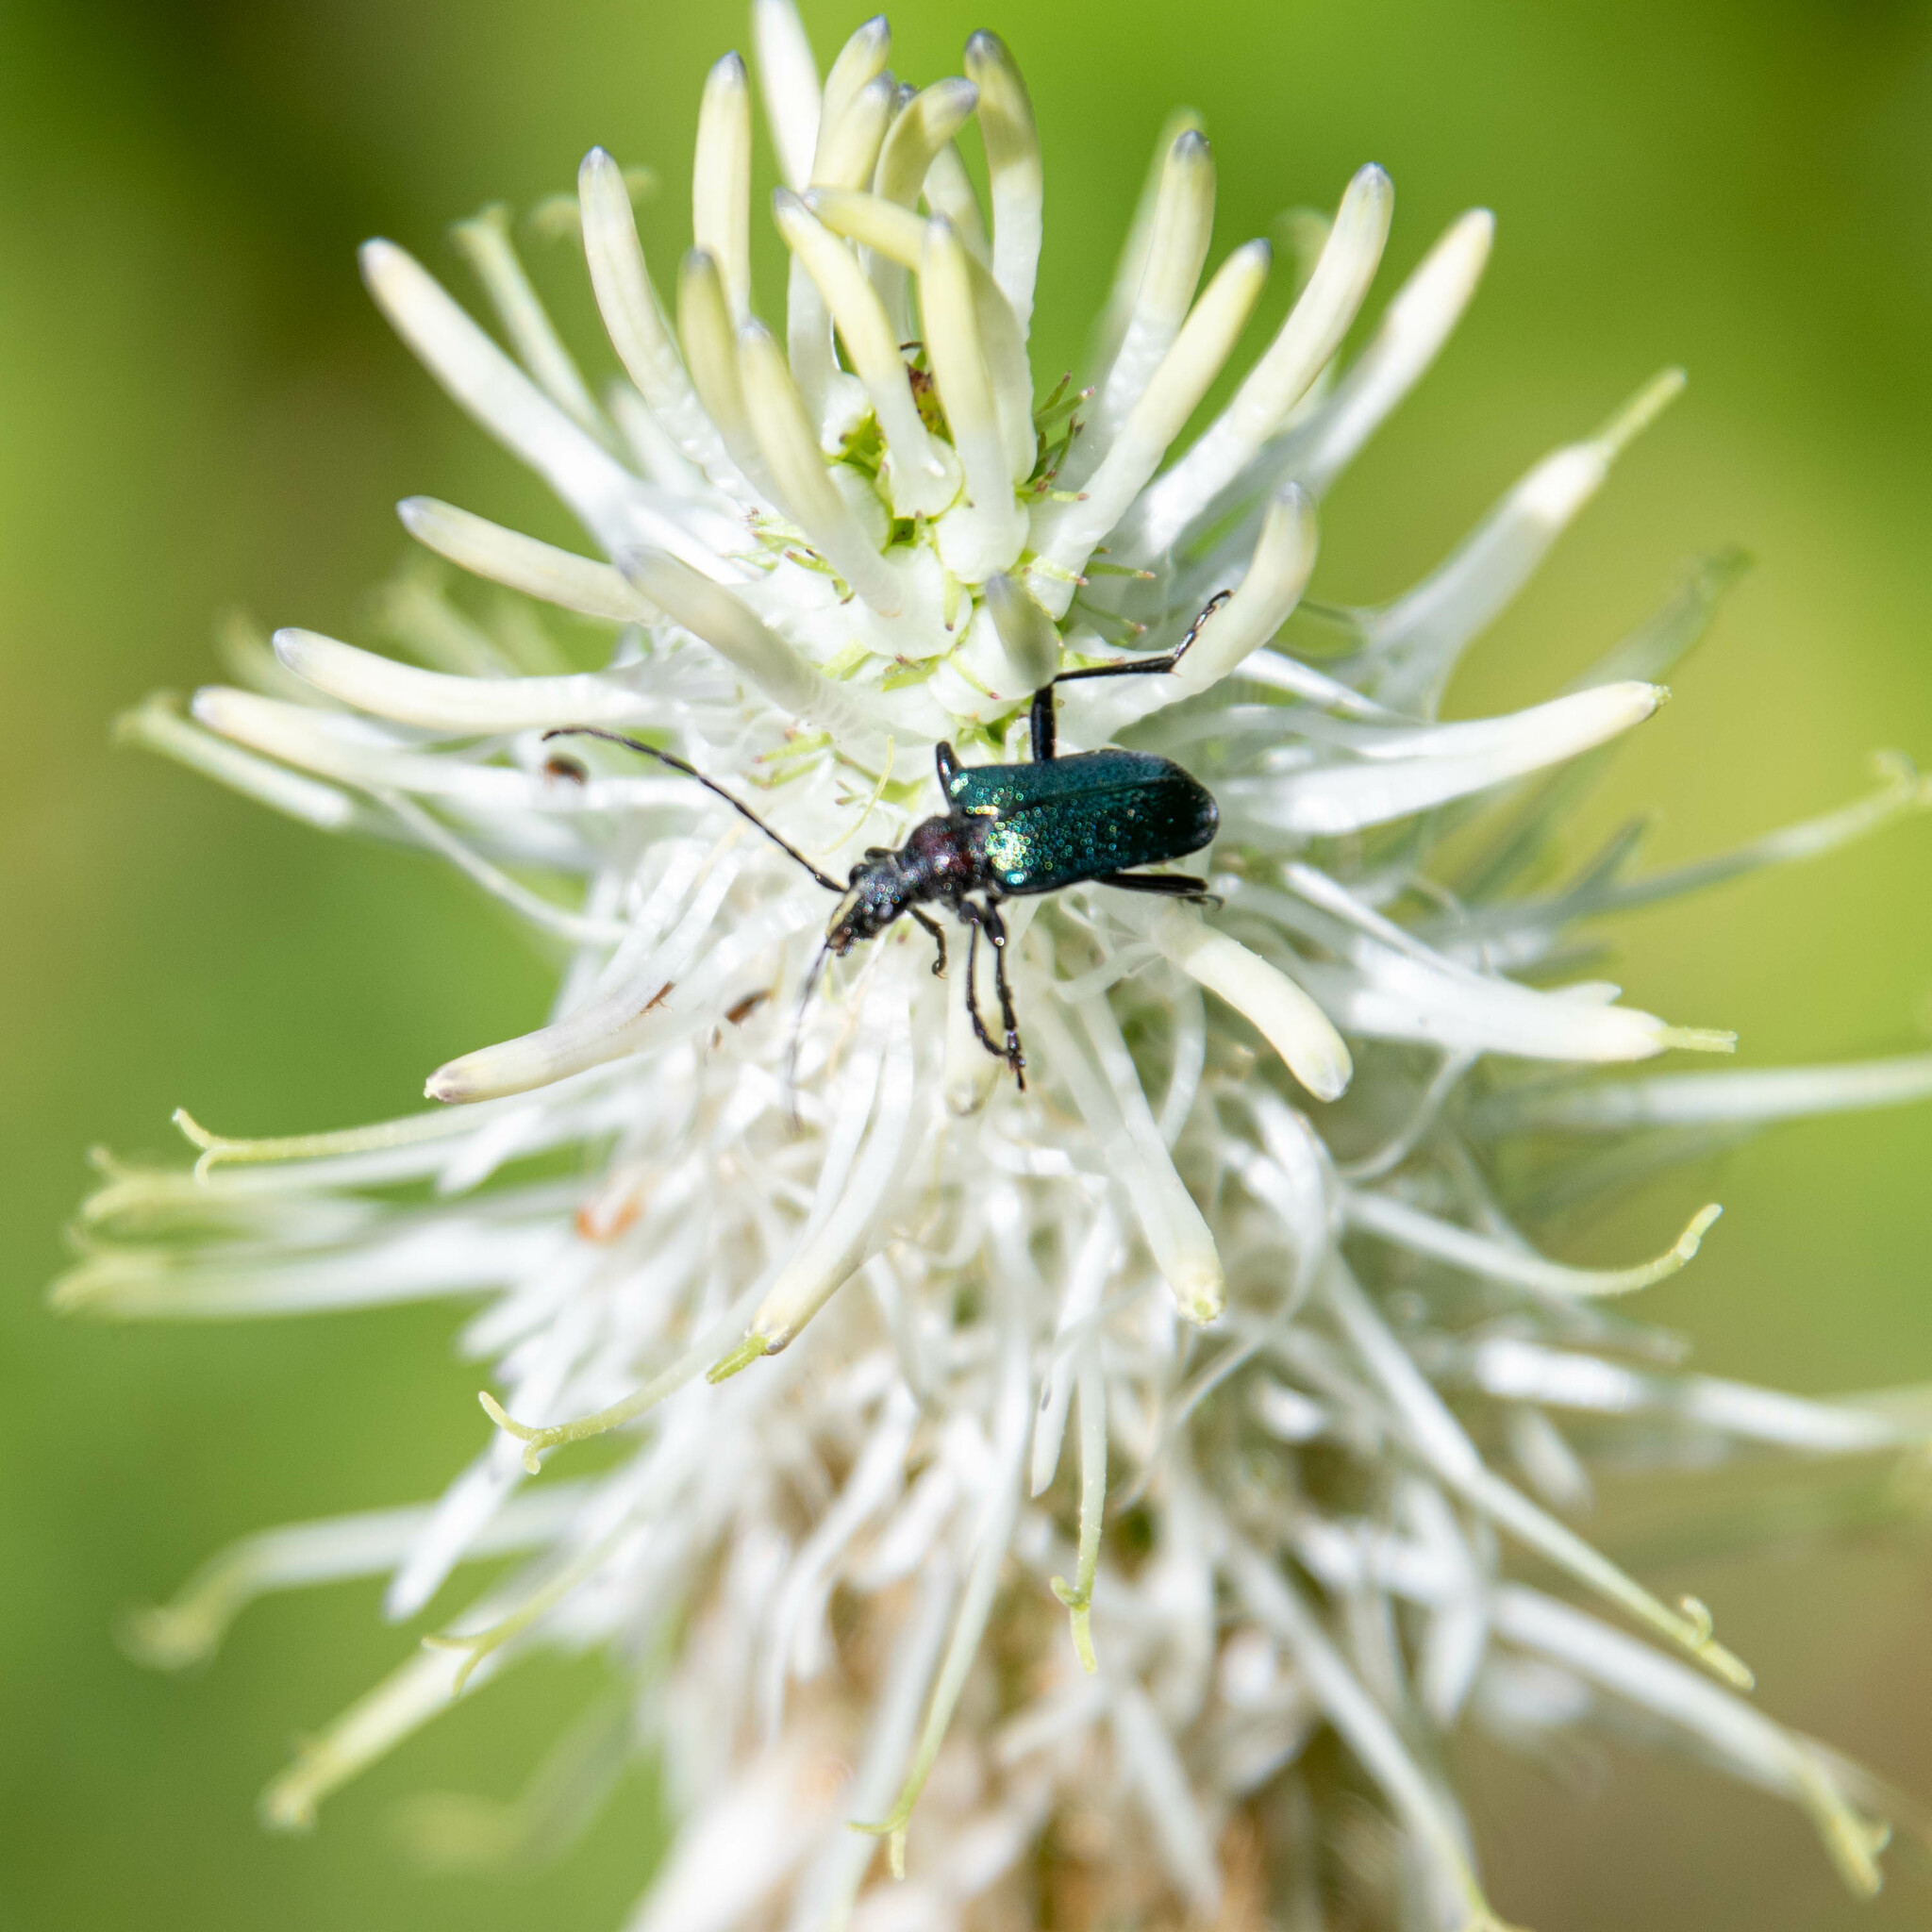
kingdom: Animalia
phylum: Arthropoda
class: Insecta
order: Coleoptera
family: Cerambycidae
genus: Gaurotes
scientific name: Gaurotes virginea
